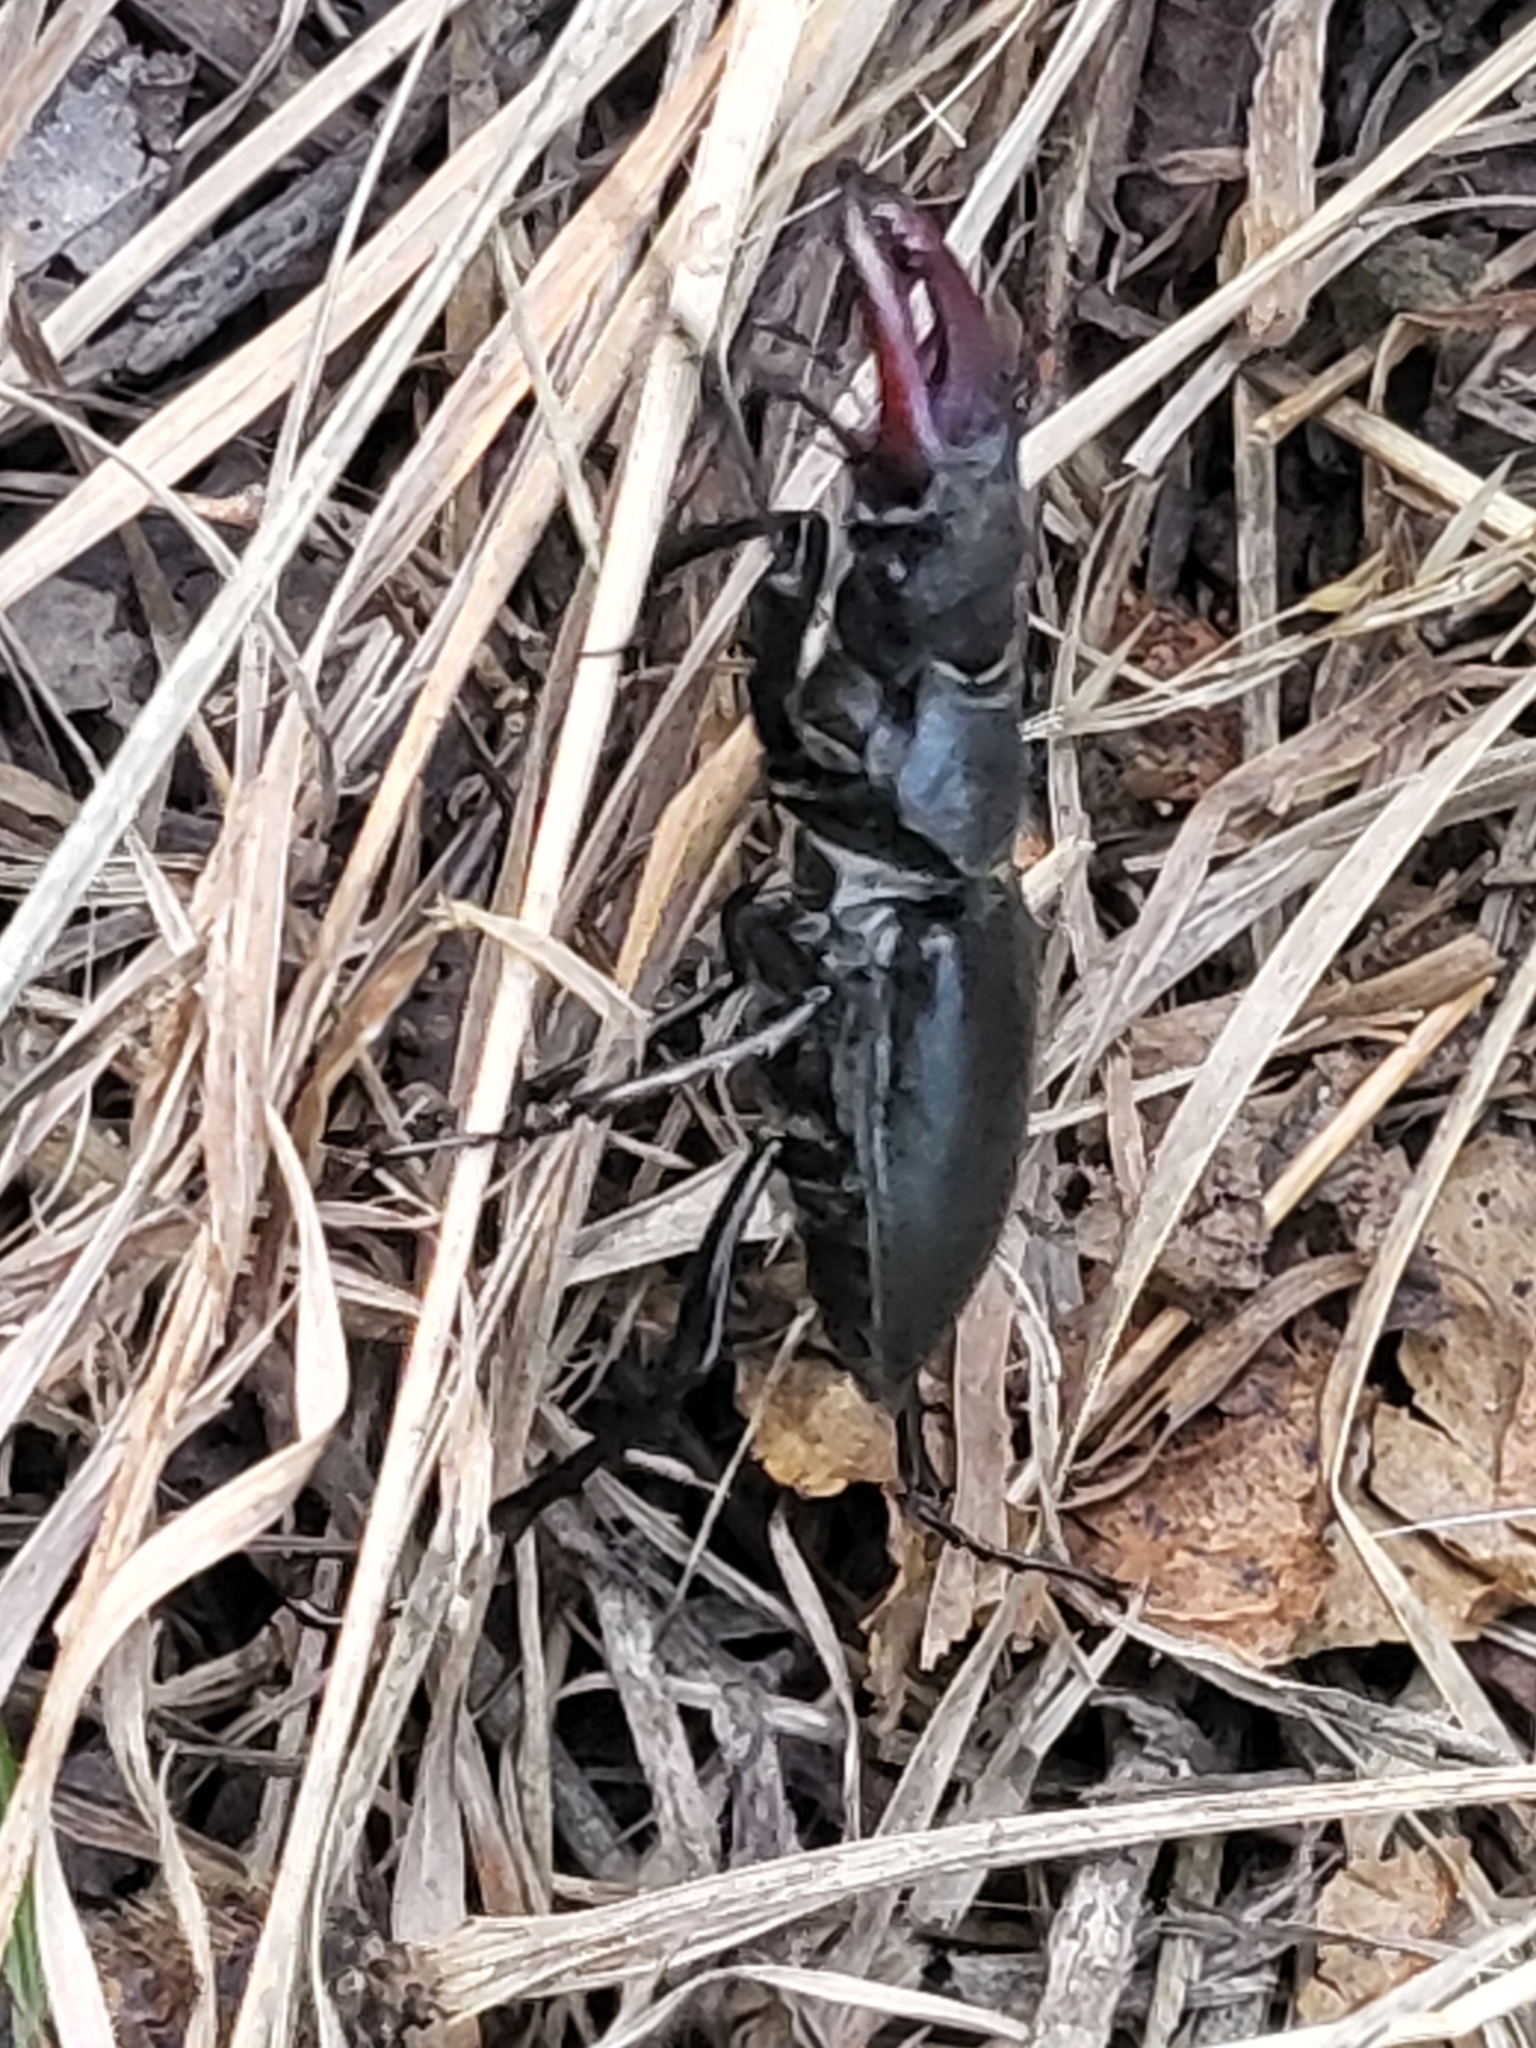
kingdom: Animalia
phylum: Arthropoda
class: Insecta
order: Coleoptera
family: Lucanidae
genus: Lucanus
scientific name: Lucanus cervus
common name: Stag beetle
